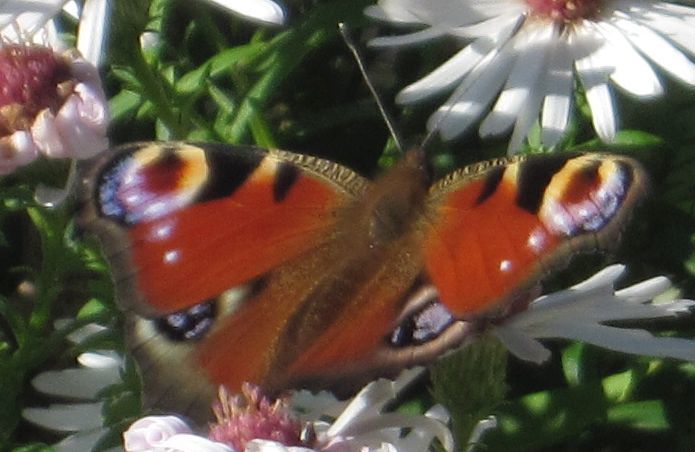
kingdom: Animalia
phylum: Arthropoda
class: Insecta
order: Lepidoptera
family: Nymphalidae
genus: Aglais
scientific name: Aglais io
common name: Peacock
